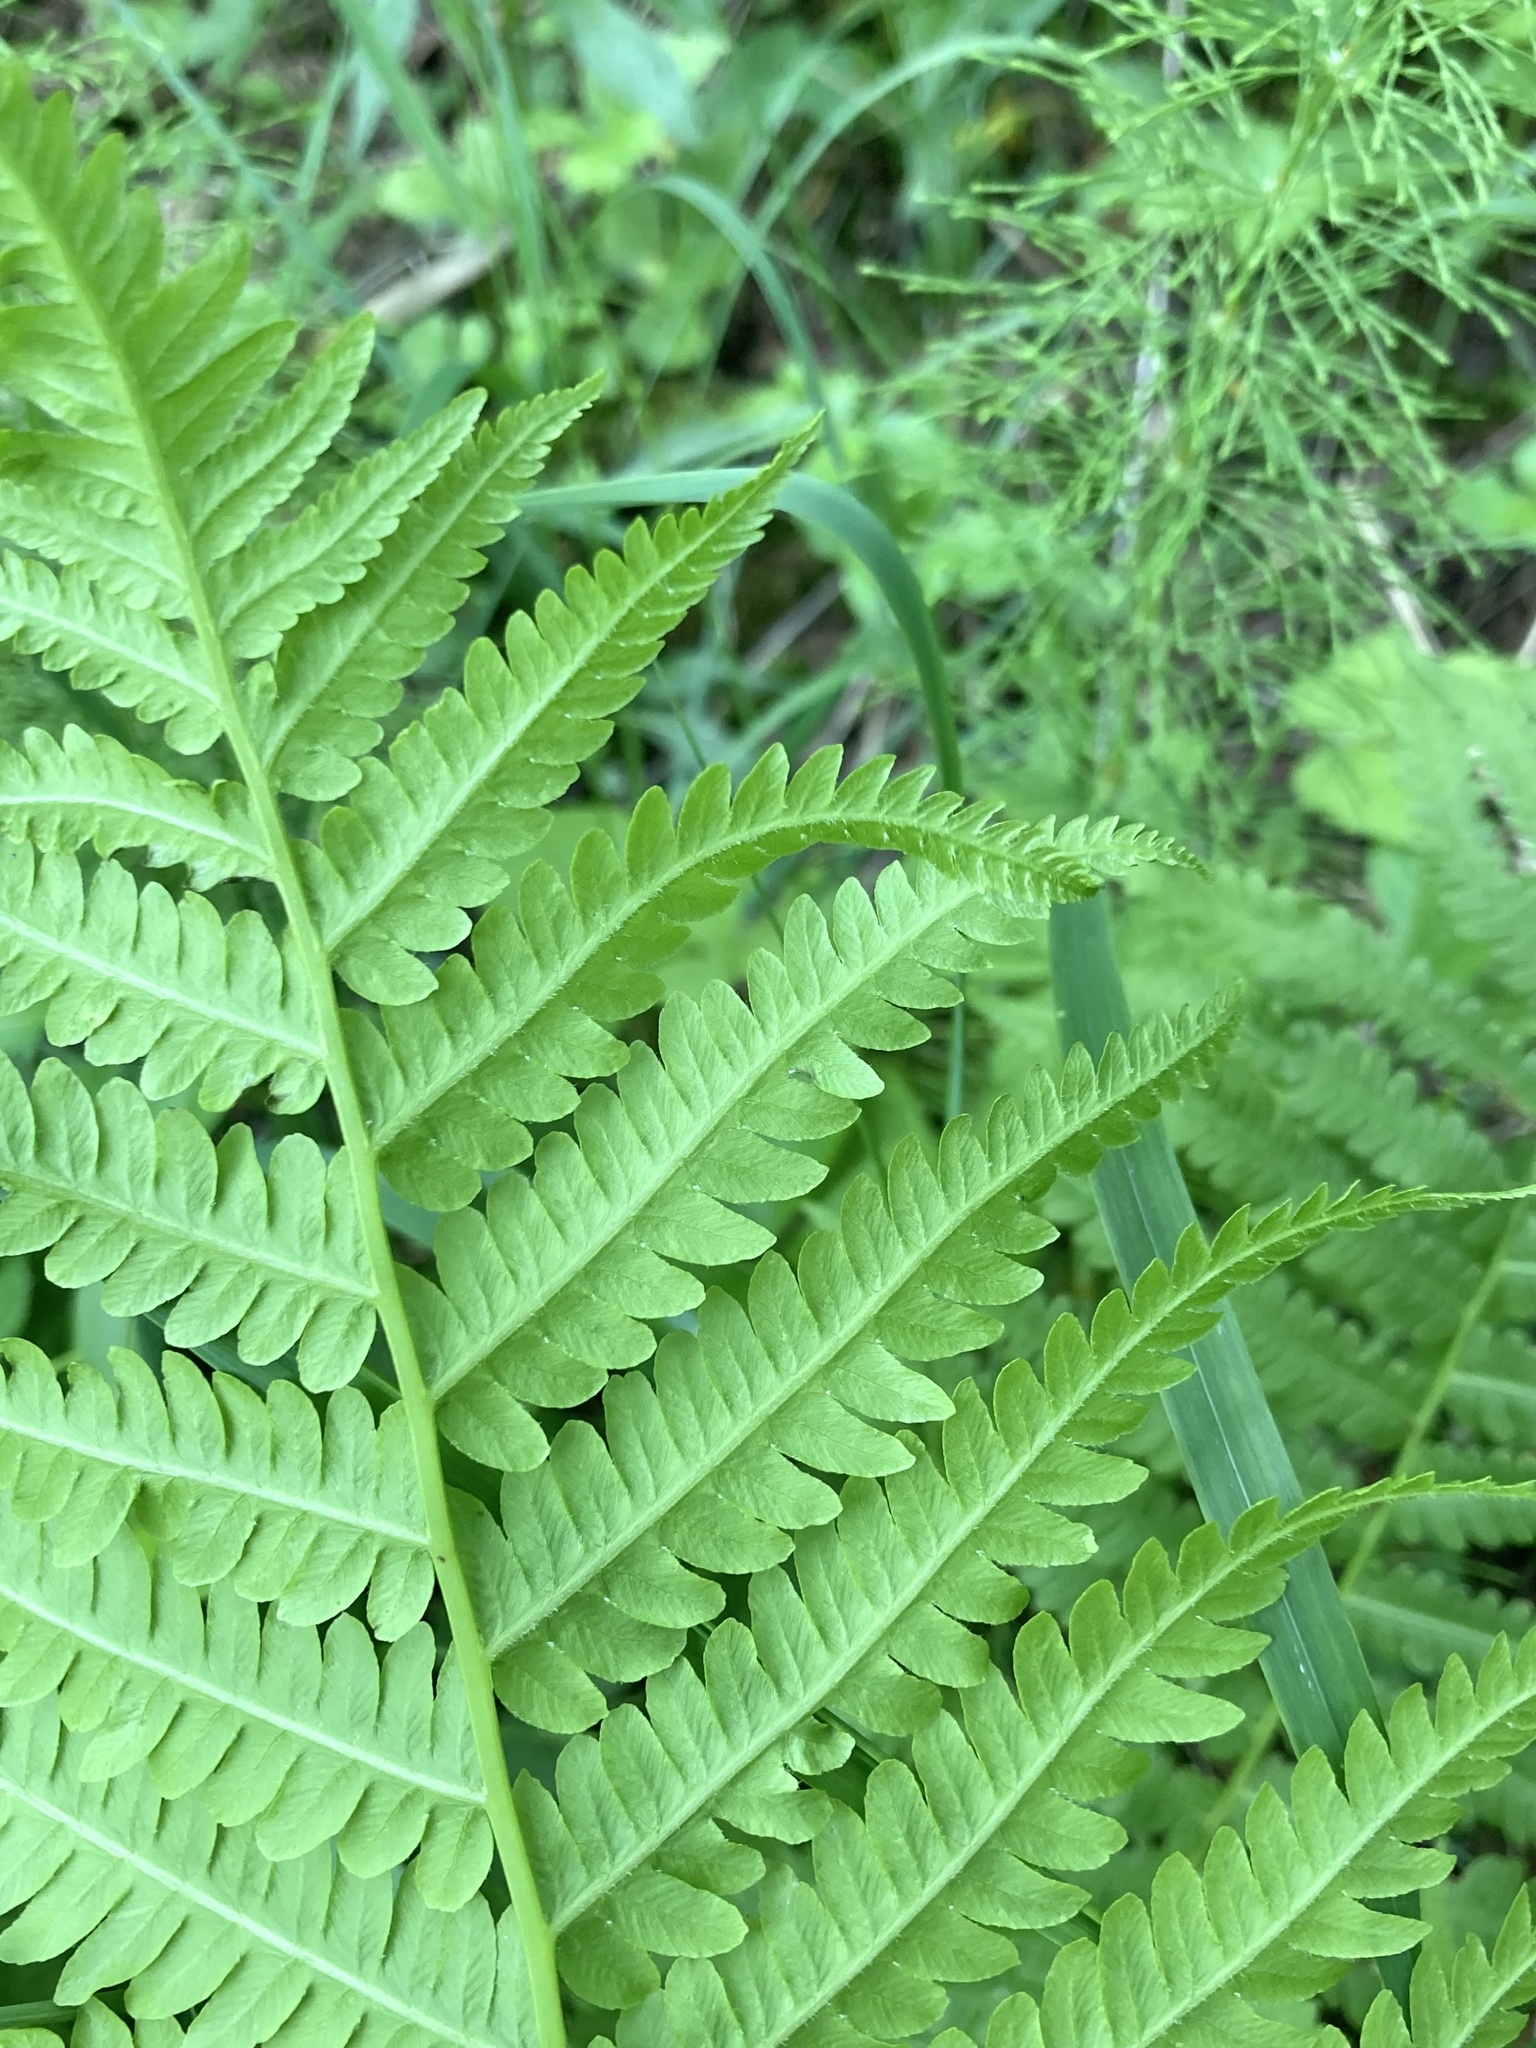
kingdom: Plantae
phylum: Tracheophyta
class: Polypodiopsida
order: Polypodiales
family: Onocleaceae
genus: Matteuccia
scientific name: Matteuccia struthiopteris
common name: Ostrich fern
